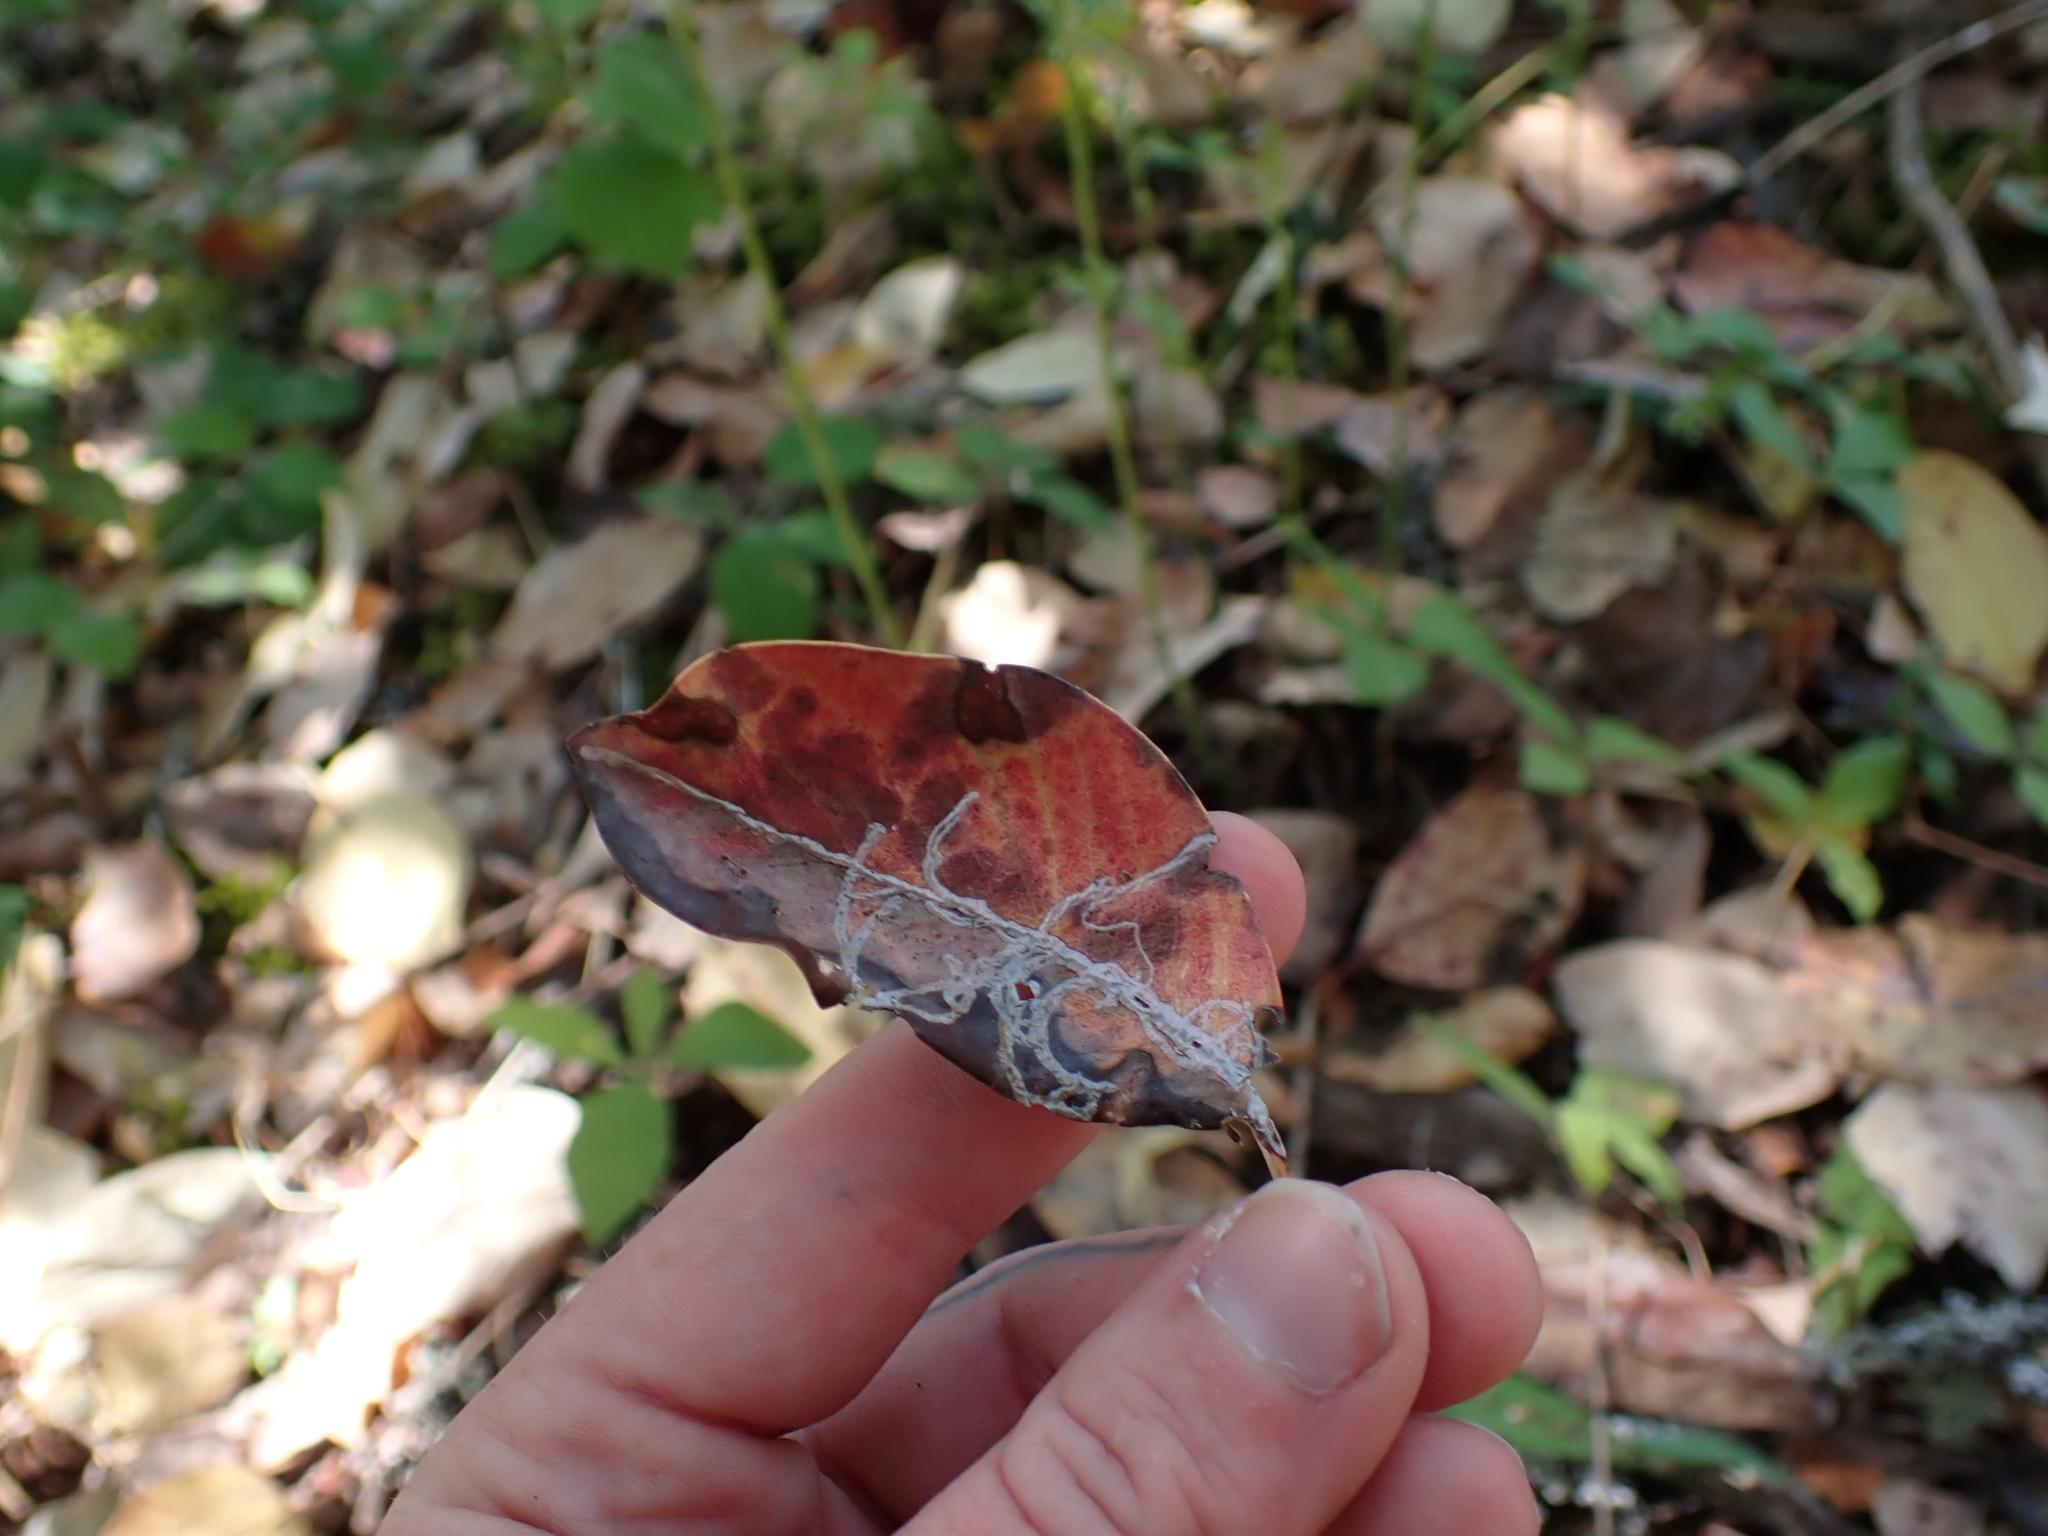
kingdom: Animalia
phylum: Arthropoda
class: Insecta
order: Lepidoptera
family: Gracillariidae
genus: Marmara
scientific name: Marmara arbutiella
